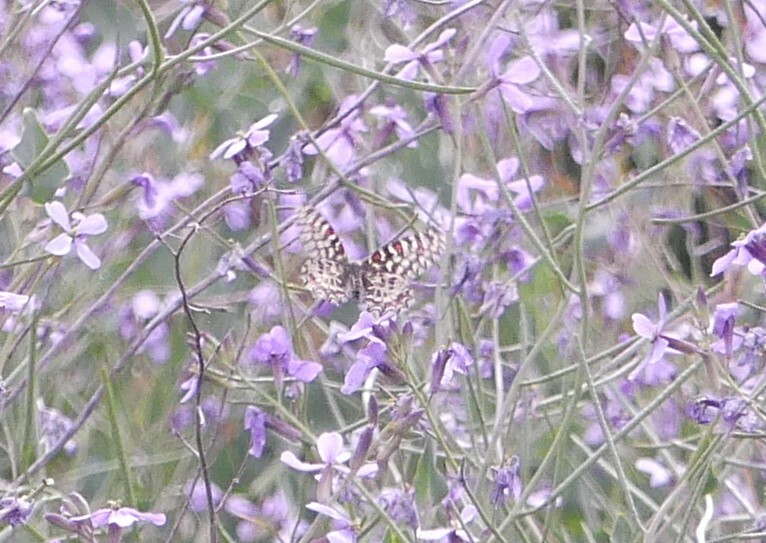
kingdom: Animalia
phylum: Arthropoda
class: Insecta
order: Lepidoptera
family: Papilionidae
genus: Zerynthia
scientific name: Zerynthia rumina
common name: Spanish festoon
